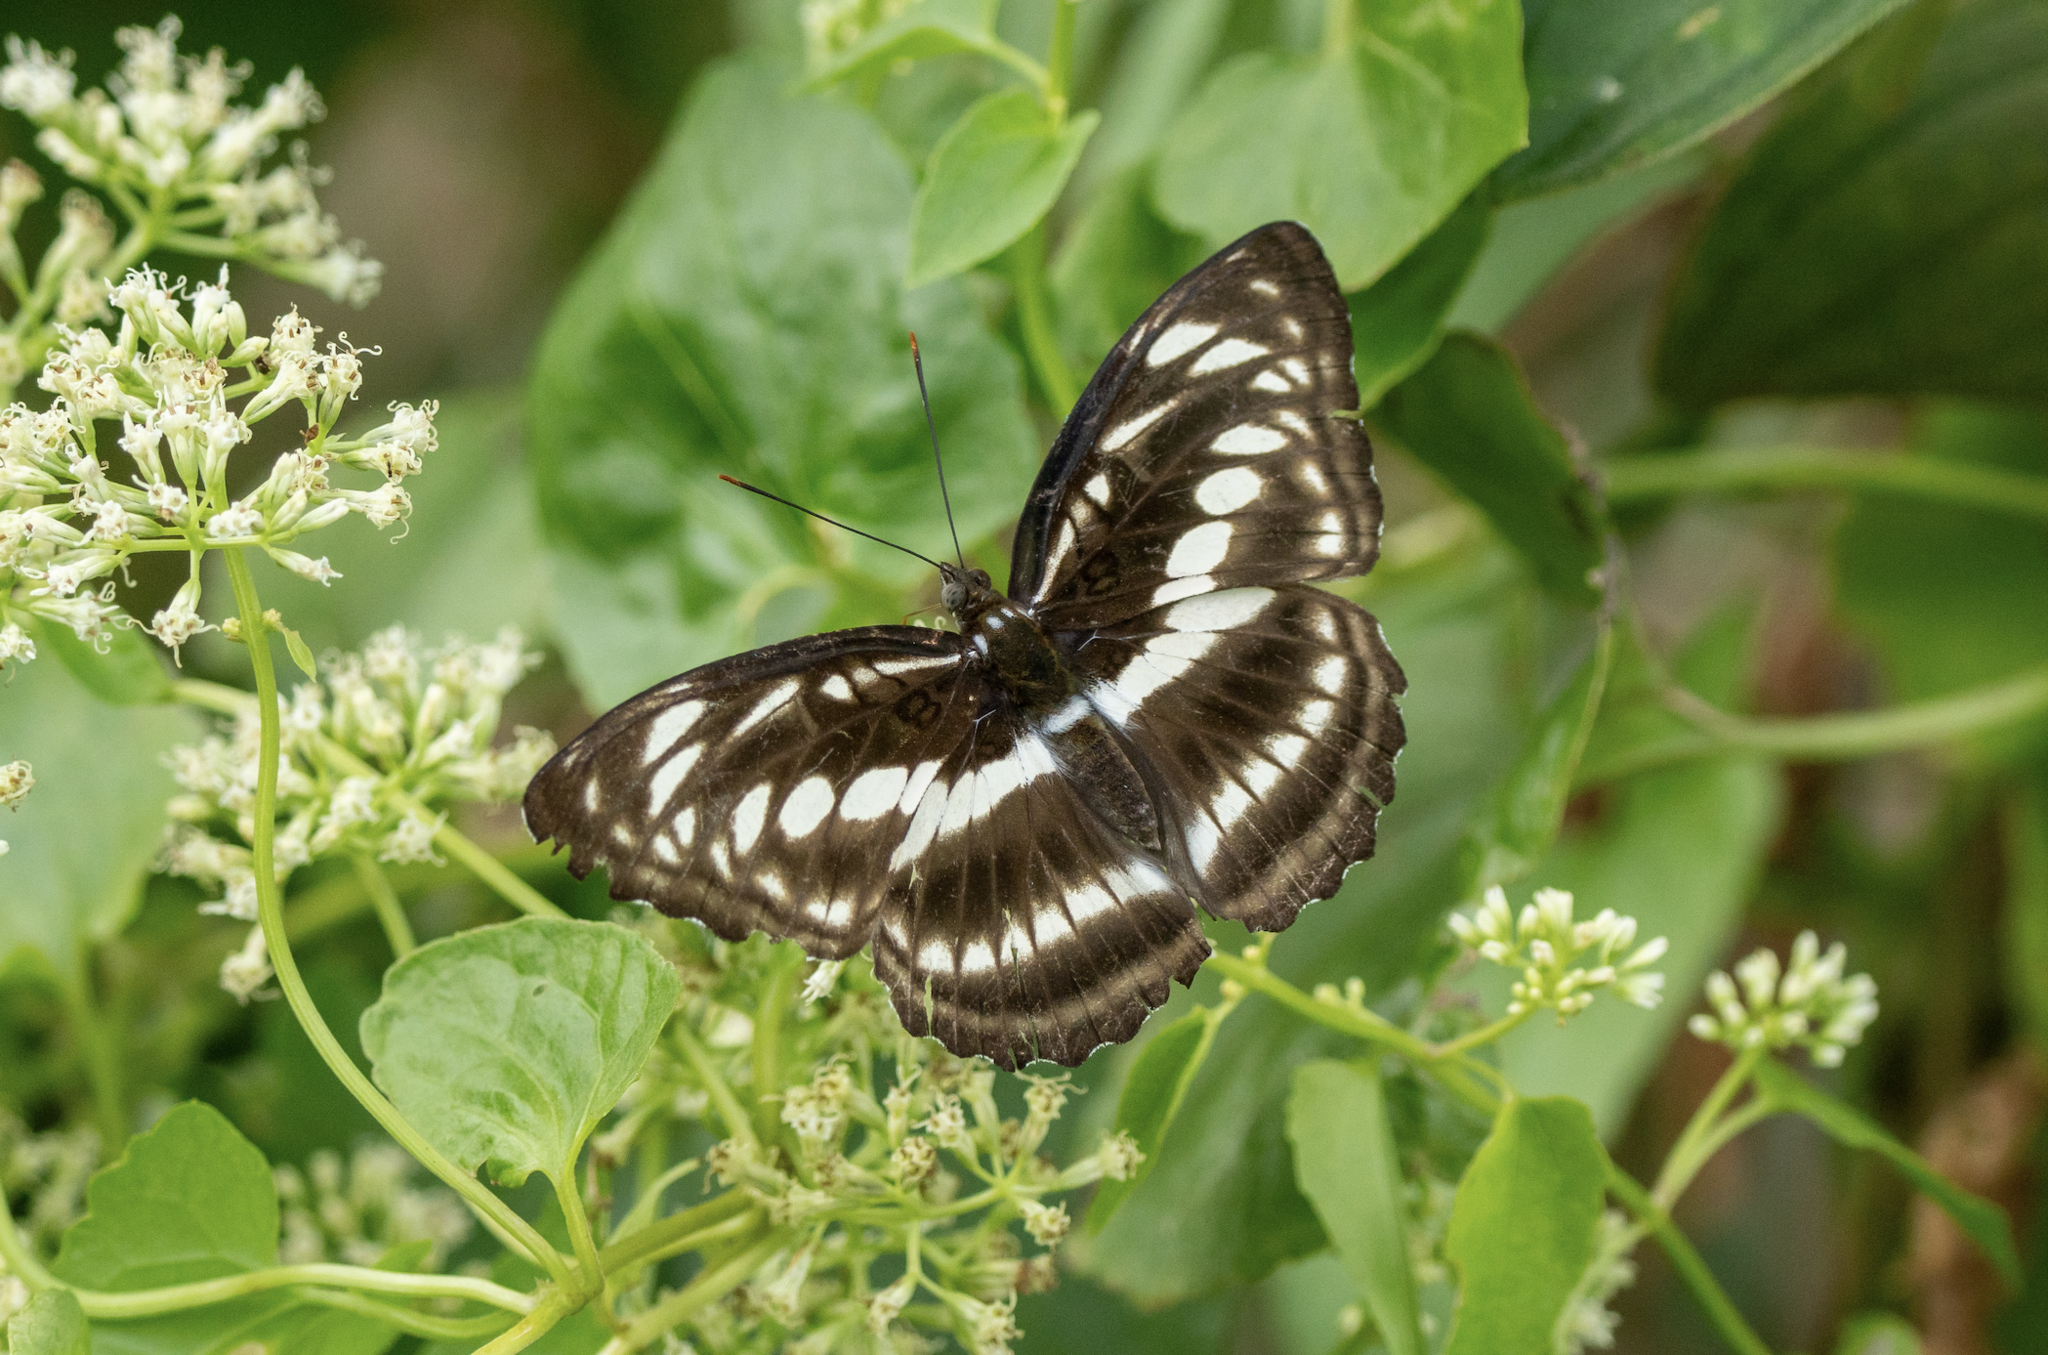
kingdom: Animalia
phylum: Arthropoda
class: Insecta
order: Lepidoptera
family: Nymphalidae
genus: Parathyma
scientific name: Parathyma selenophora
